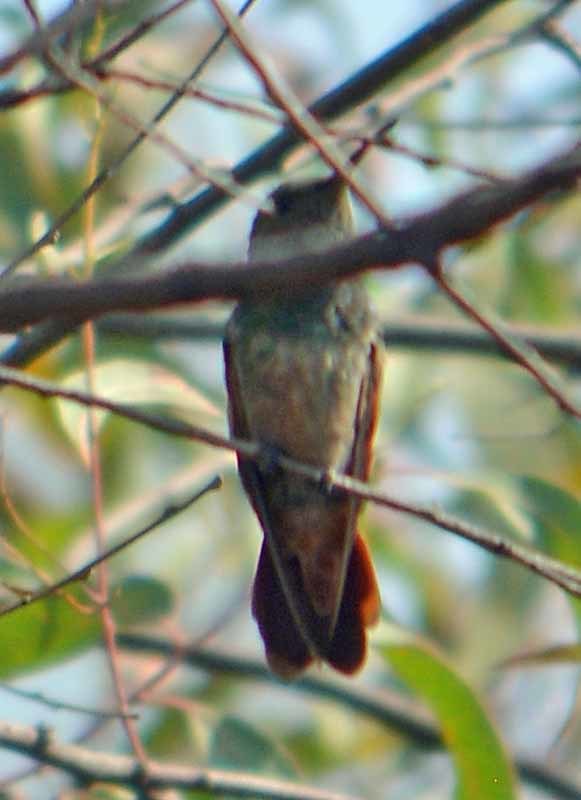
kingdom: Animalia
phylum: Chordata
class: Aves
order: Apodiformes
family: Trochilidae
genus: Saucerottia
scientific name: Saucerottia beryllina
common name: Berylline hummingbird
